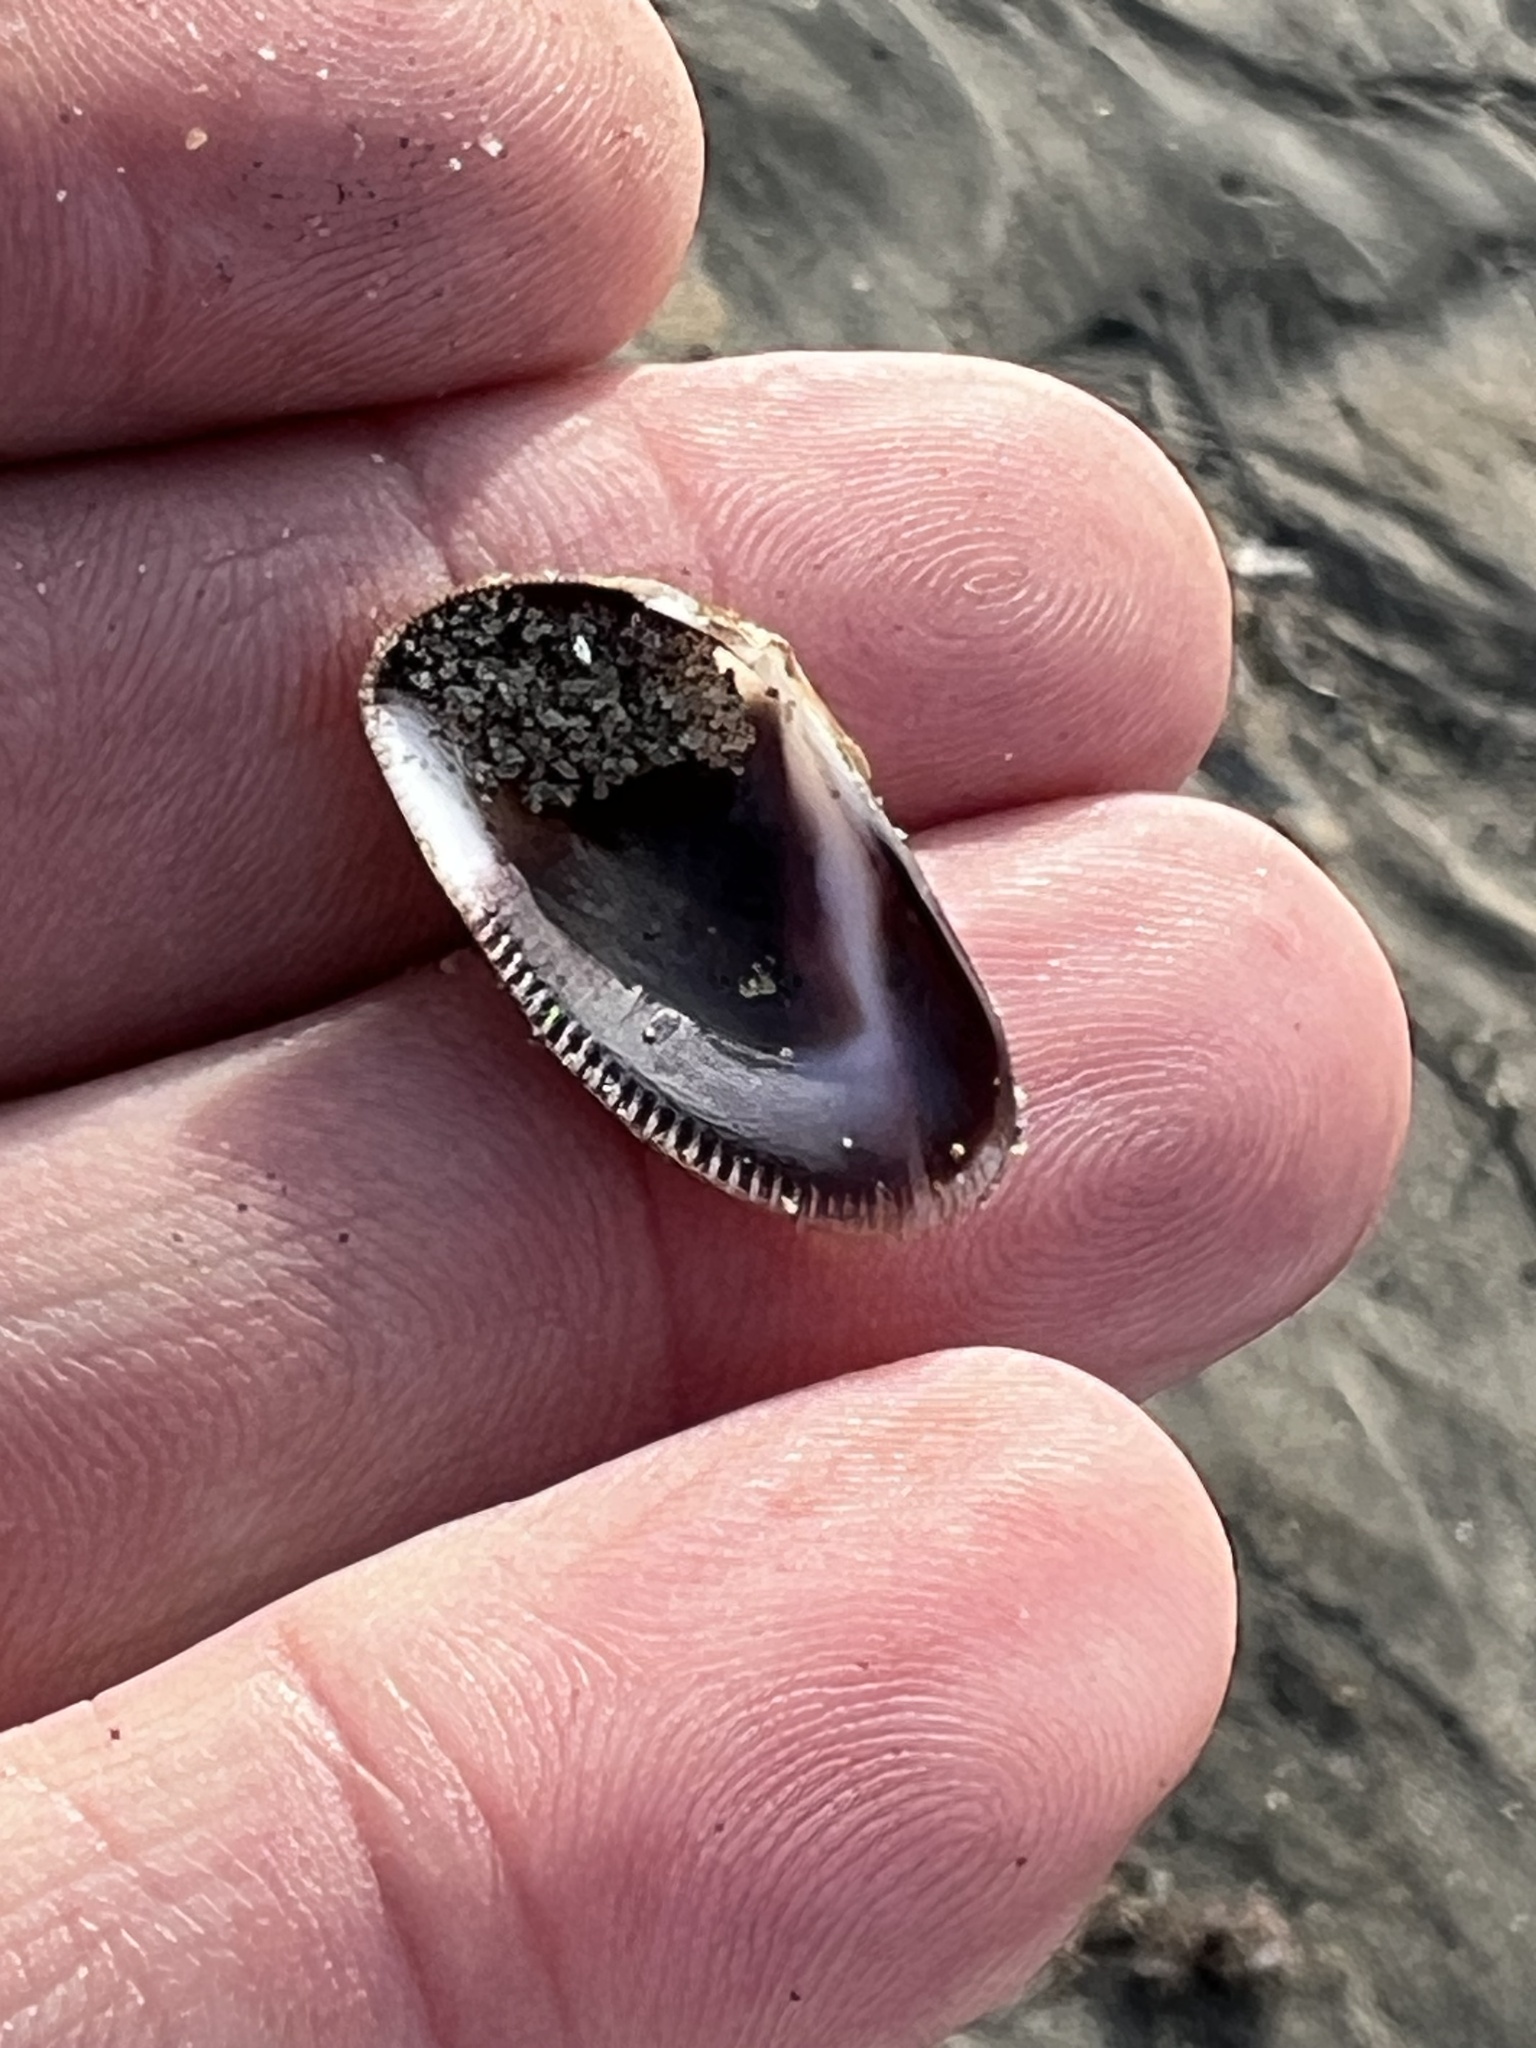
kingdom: Animalia
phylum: Mollusca
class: Bivalvia
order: Cardiida
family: Donacidae
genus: Donax
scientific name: Donax gouldii
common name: Gould beanclam
